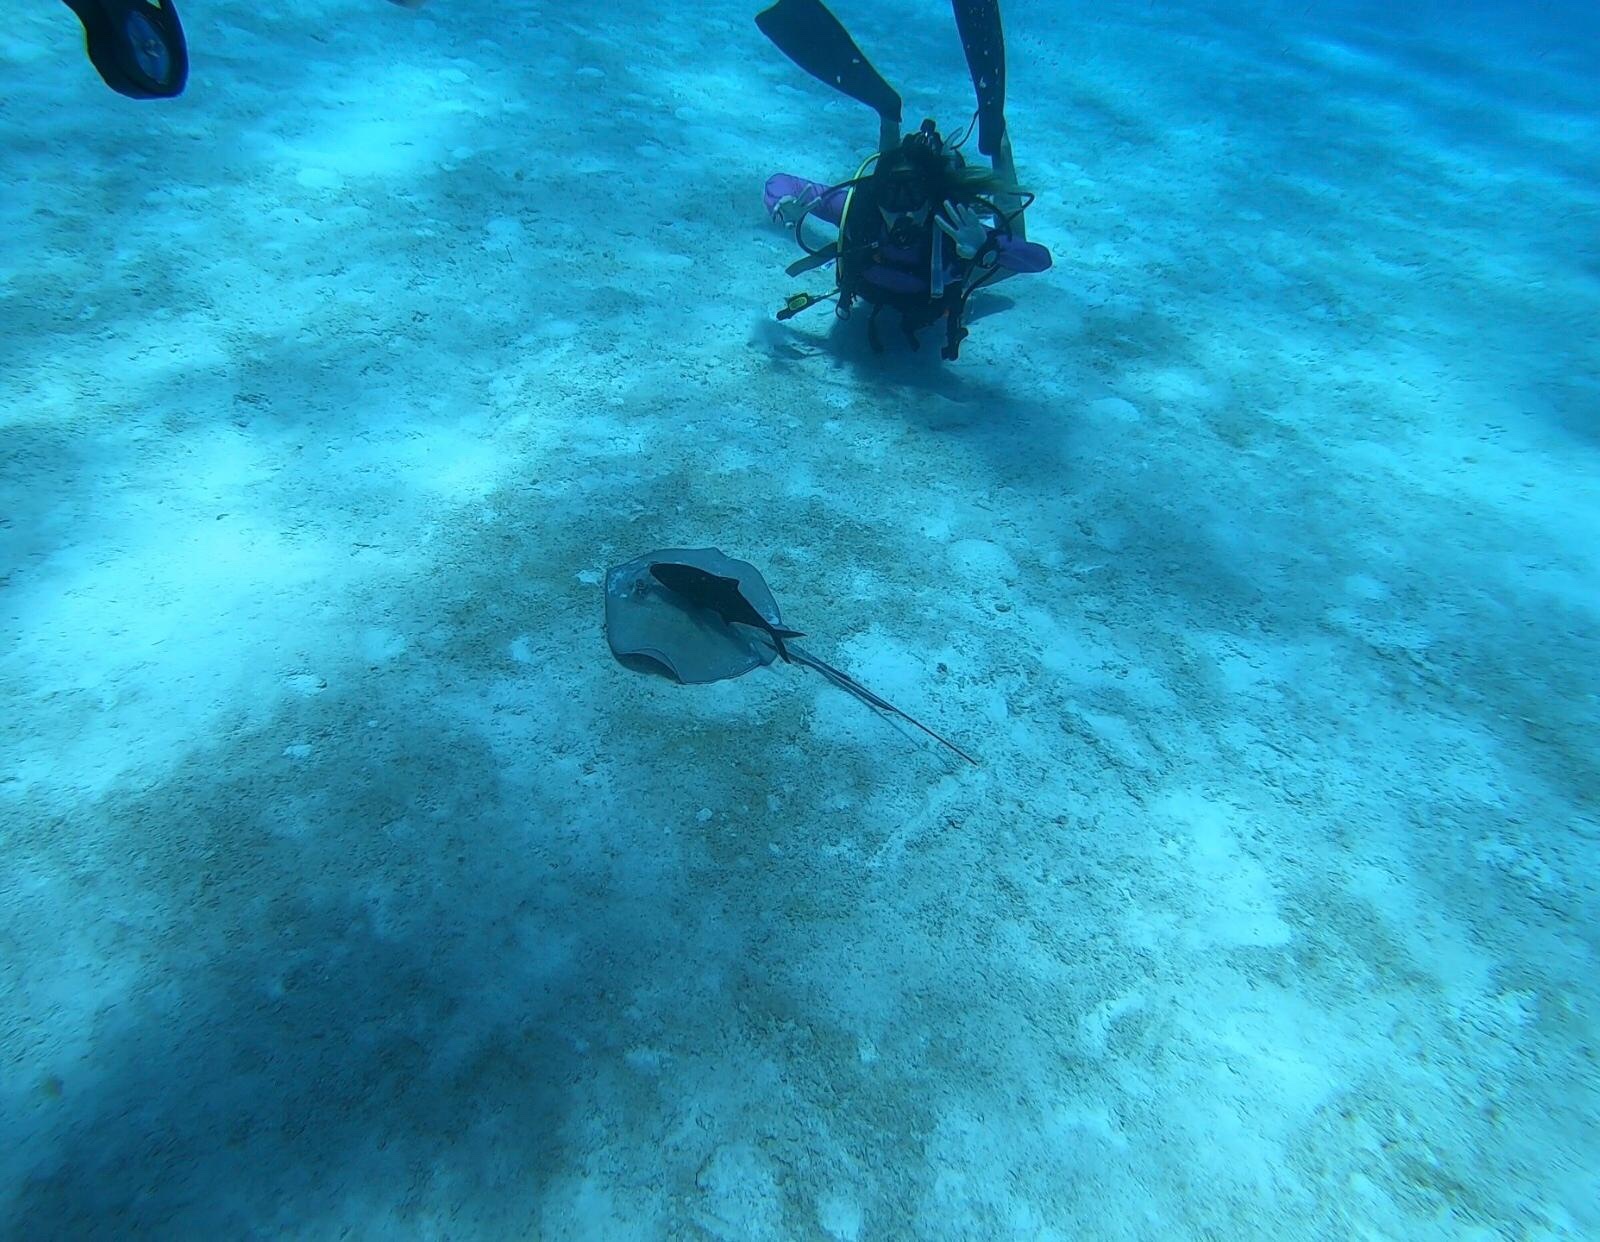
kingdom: Animalia
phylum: Chordata
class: Elasmobranchii
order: Myliobatiformes
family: Dasyatidae
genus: Hypanus
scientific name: Hypanus americanus
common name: Southern stingray
